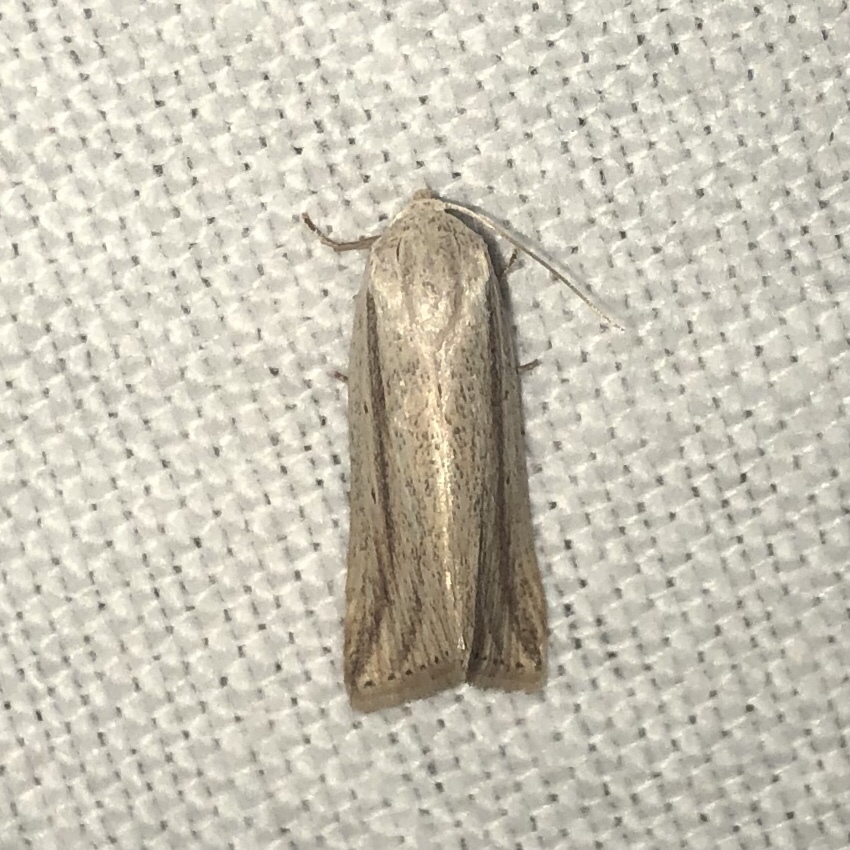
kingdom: Animalia
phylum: Arthropoda
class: Insecta
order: Lepidoptera
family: Noctuidae
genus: Amolita
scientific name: Amolita fessa
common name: Feeble grass moth
